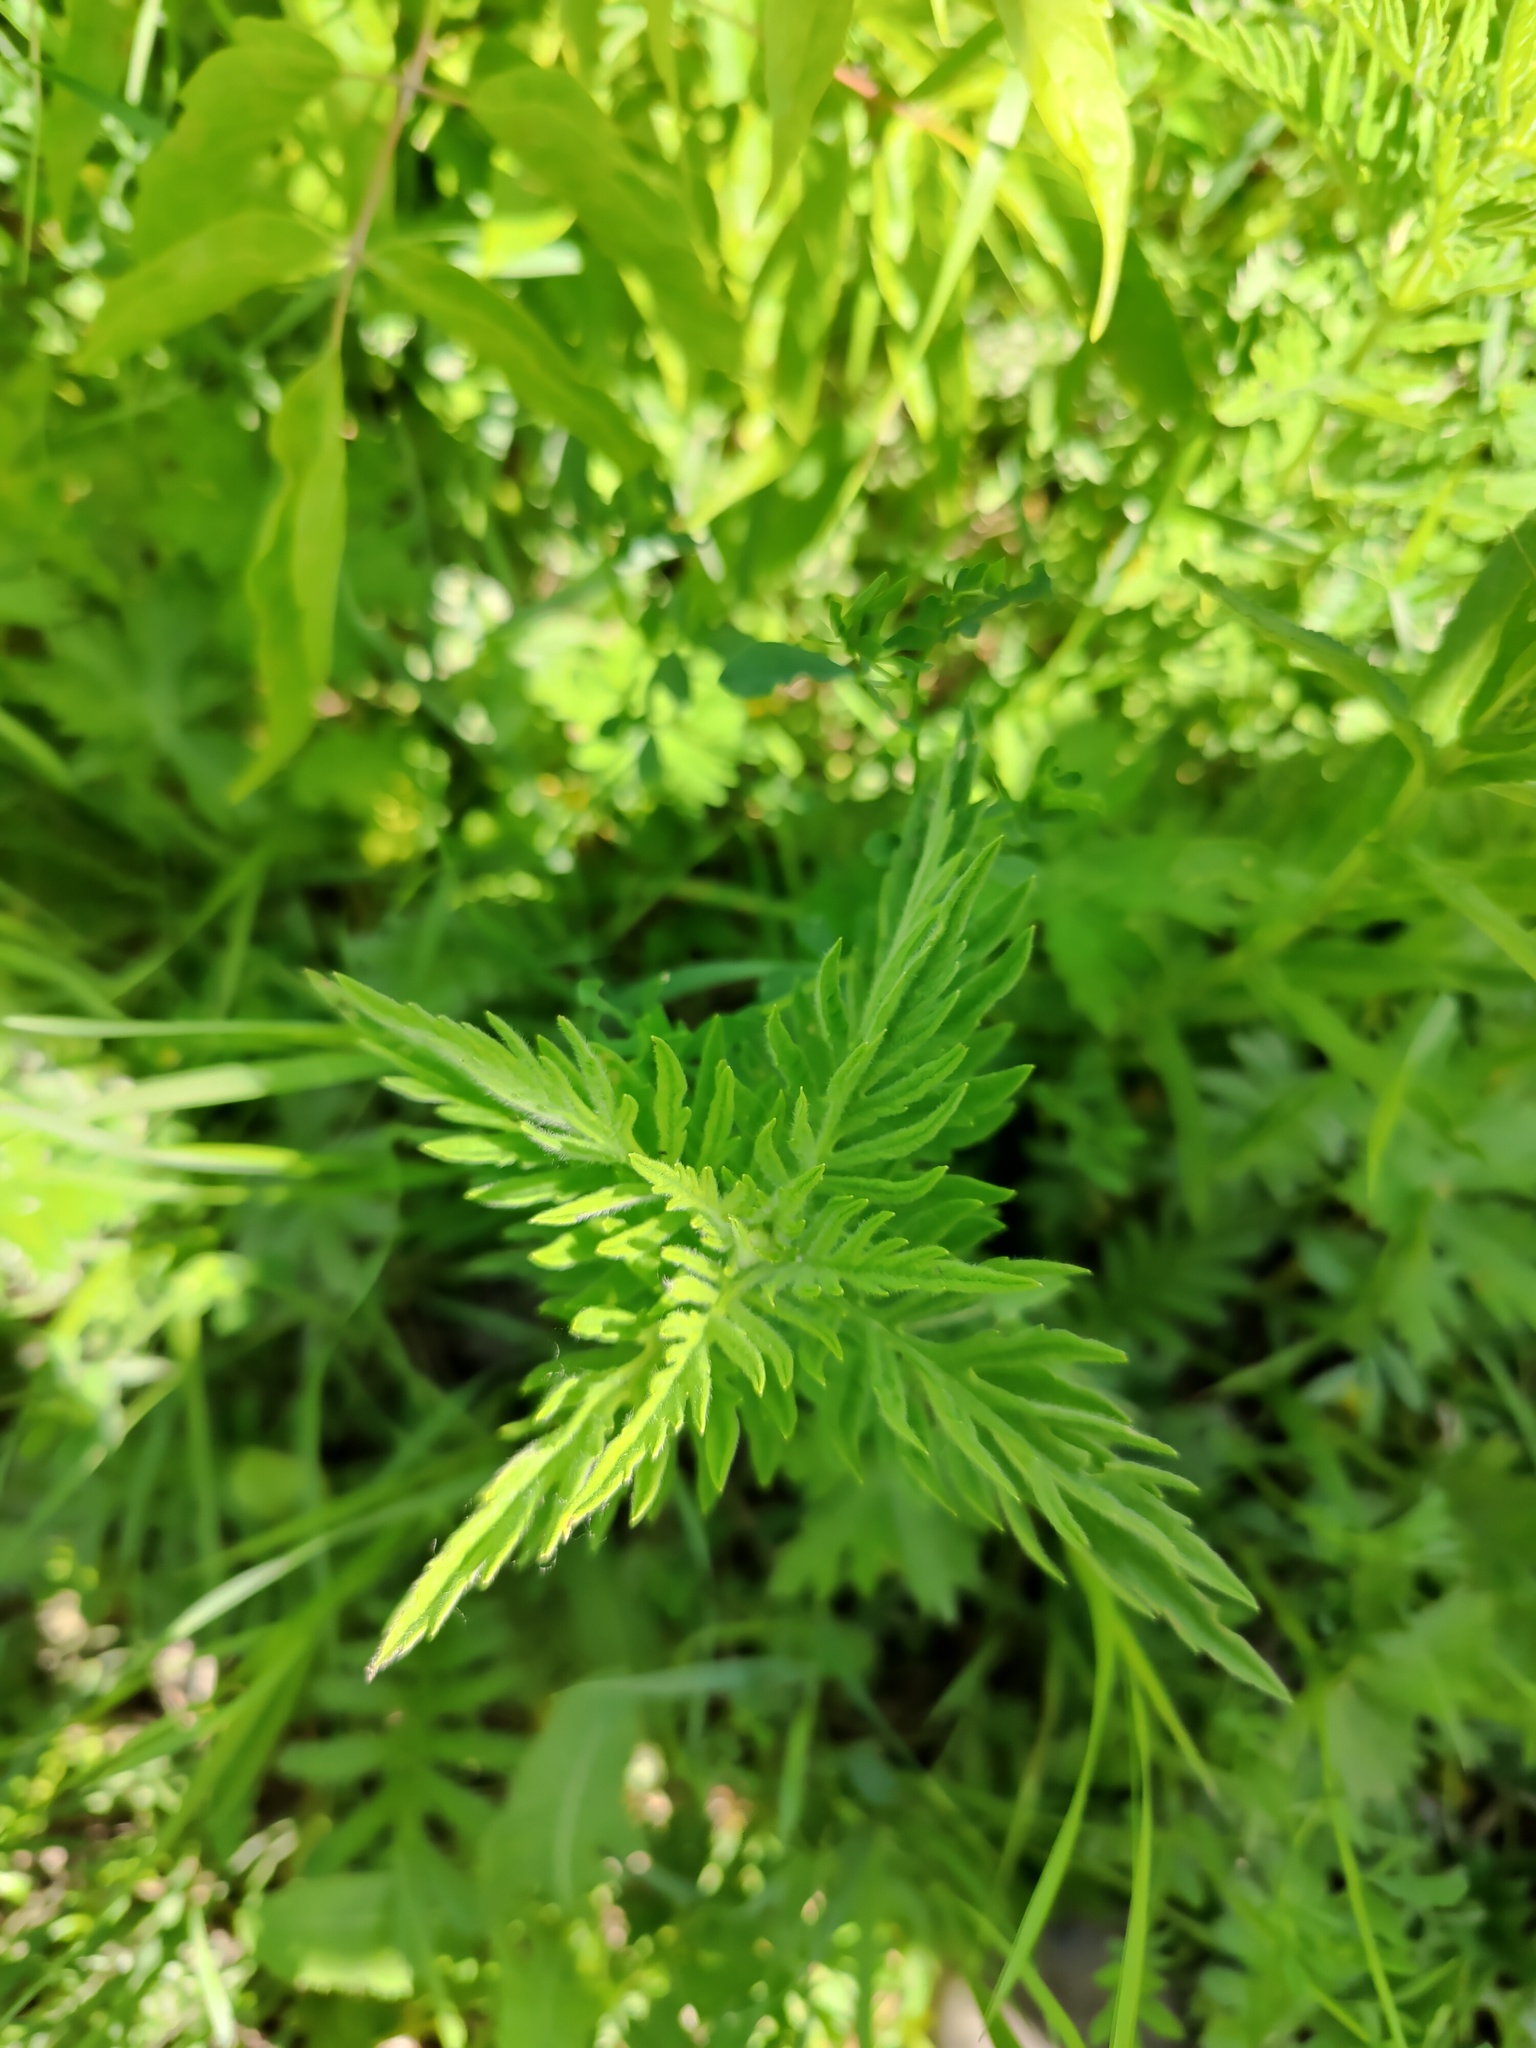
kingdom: Plantae
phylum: Tracheophyta
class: Magnoliopsida
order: Lamiales
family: Lamiaceae
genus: Lycopus
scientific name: Lycopus exaltatus
